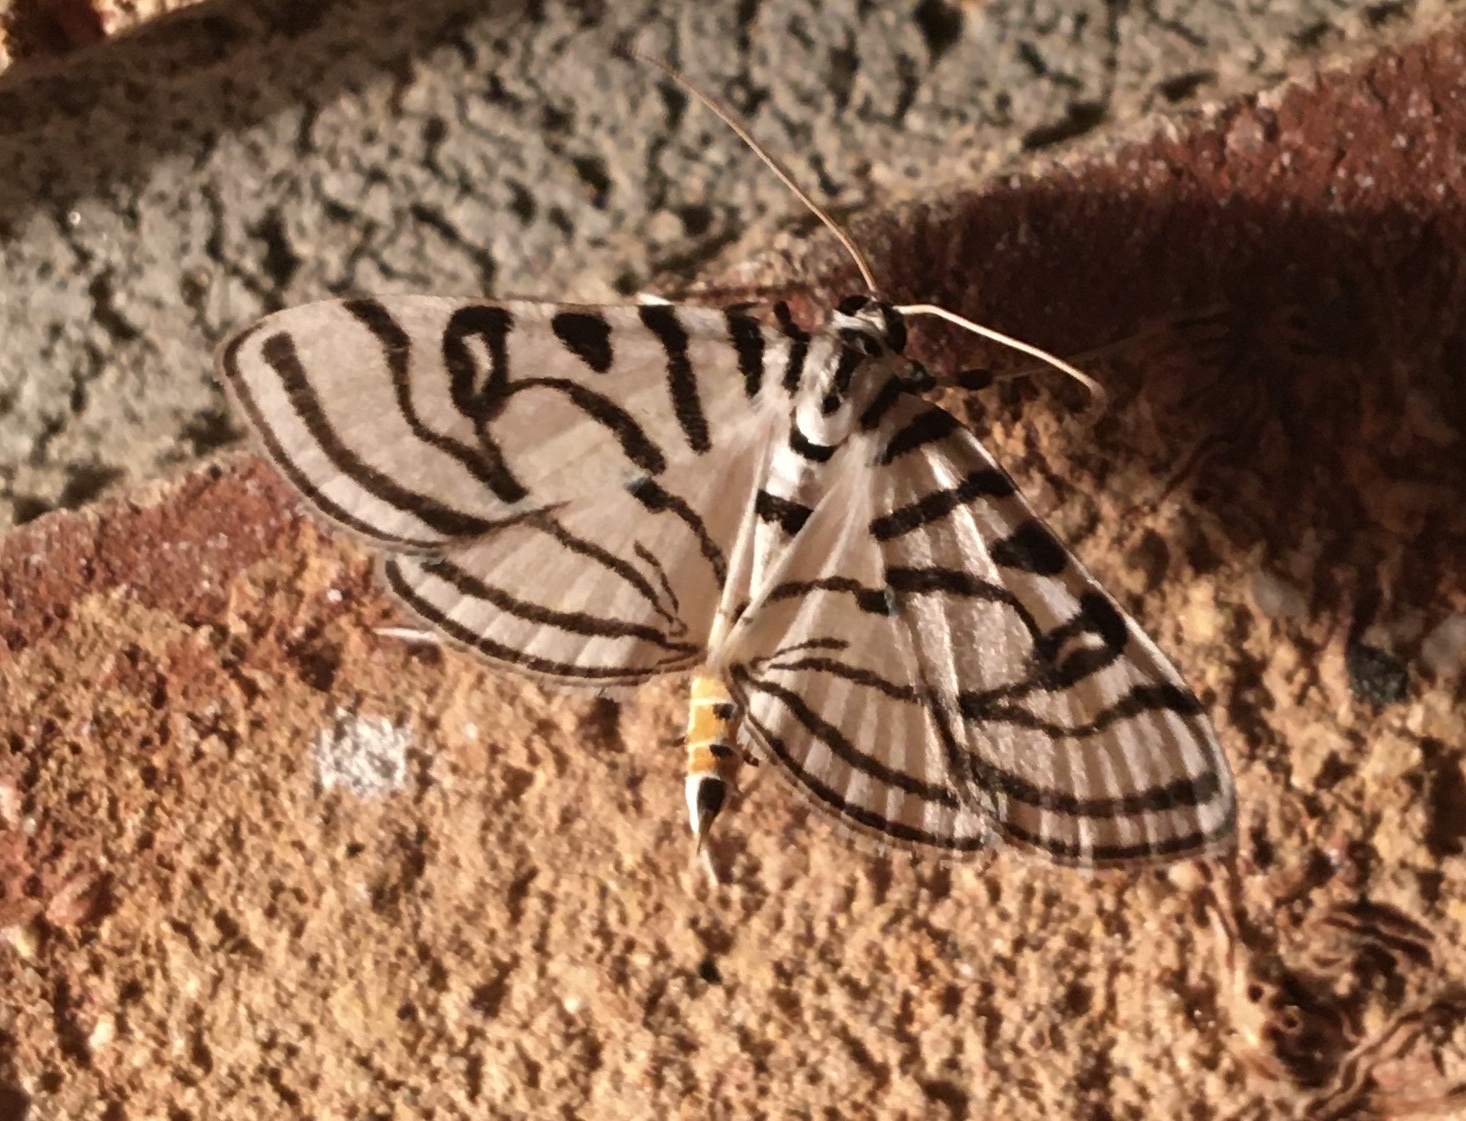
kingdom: Animalia
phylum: Arthropoda
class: Insecta
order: Lepidoptera
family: Crambidae
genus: Conchylodes
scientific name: Conchylodes ovulalis
